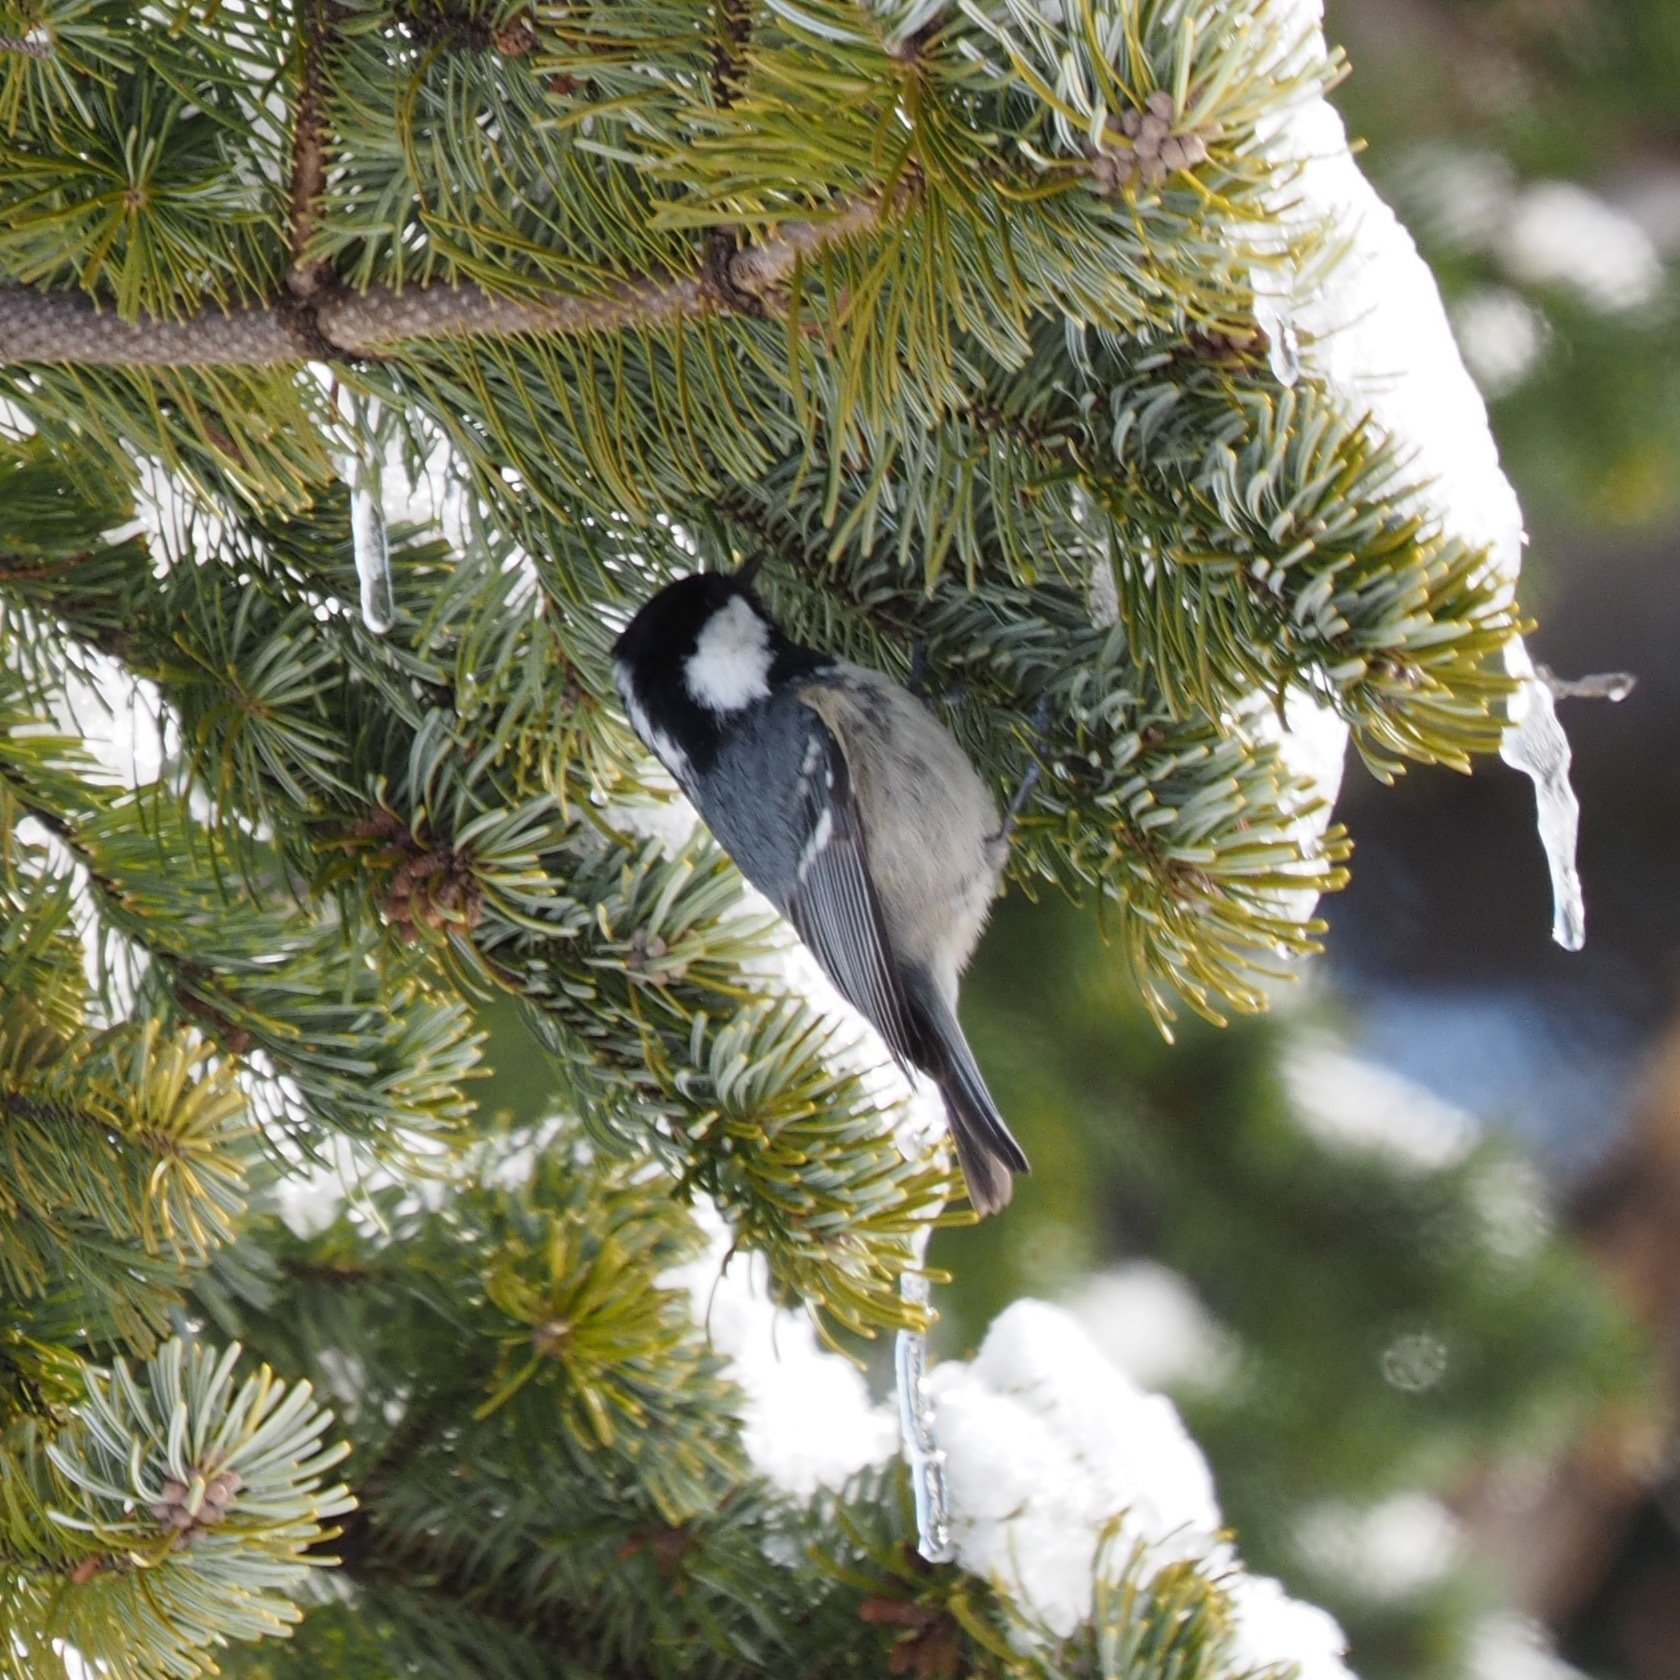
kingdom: Animalia
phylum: Chordata
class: Aves
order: Passeriformes
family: Paridae
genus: Periparus
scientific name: Periparus ater
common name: Coal tit
